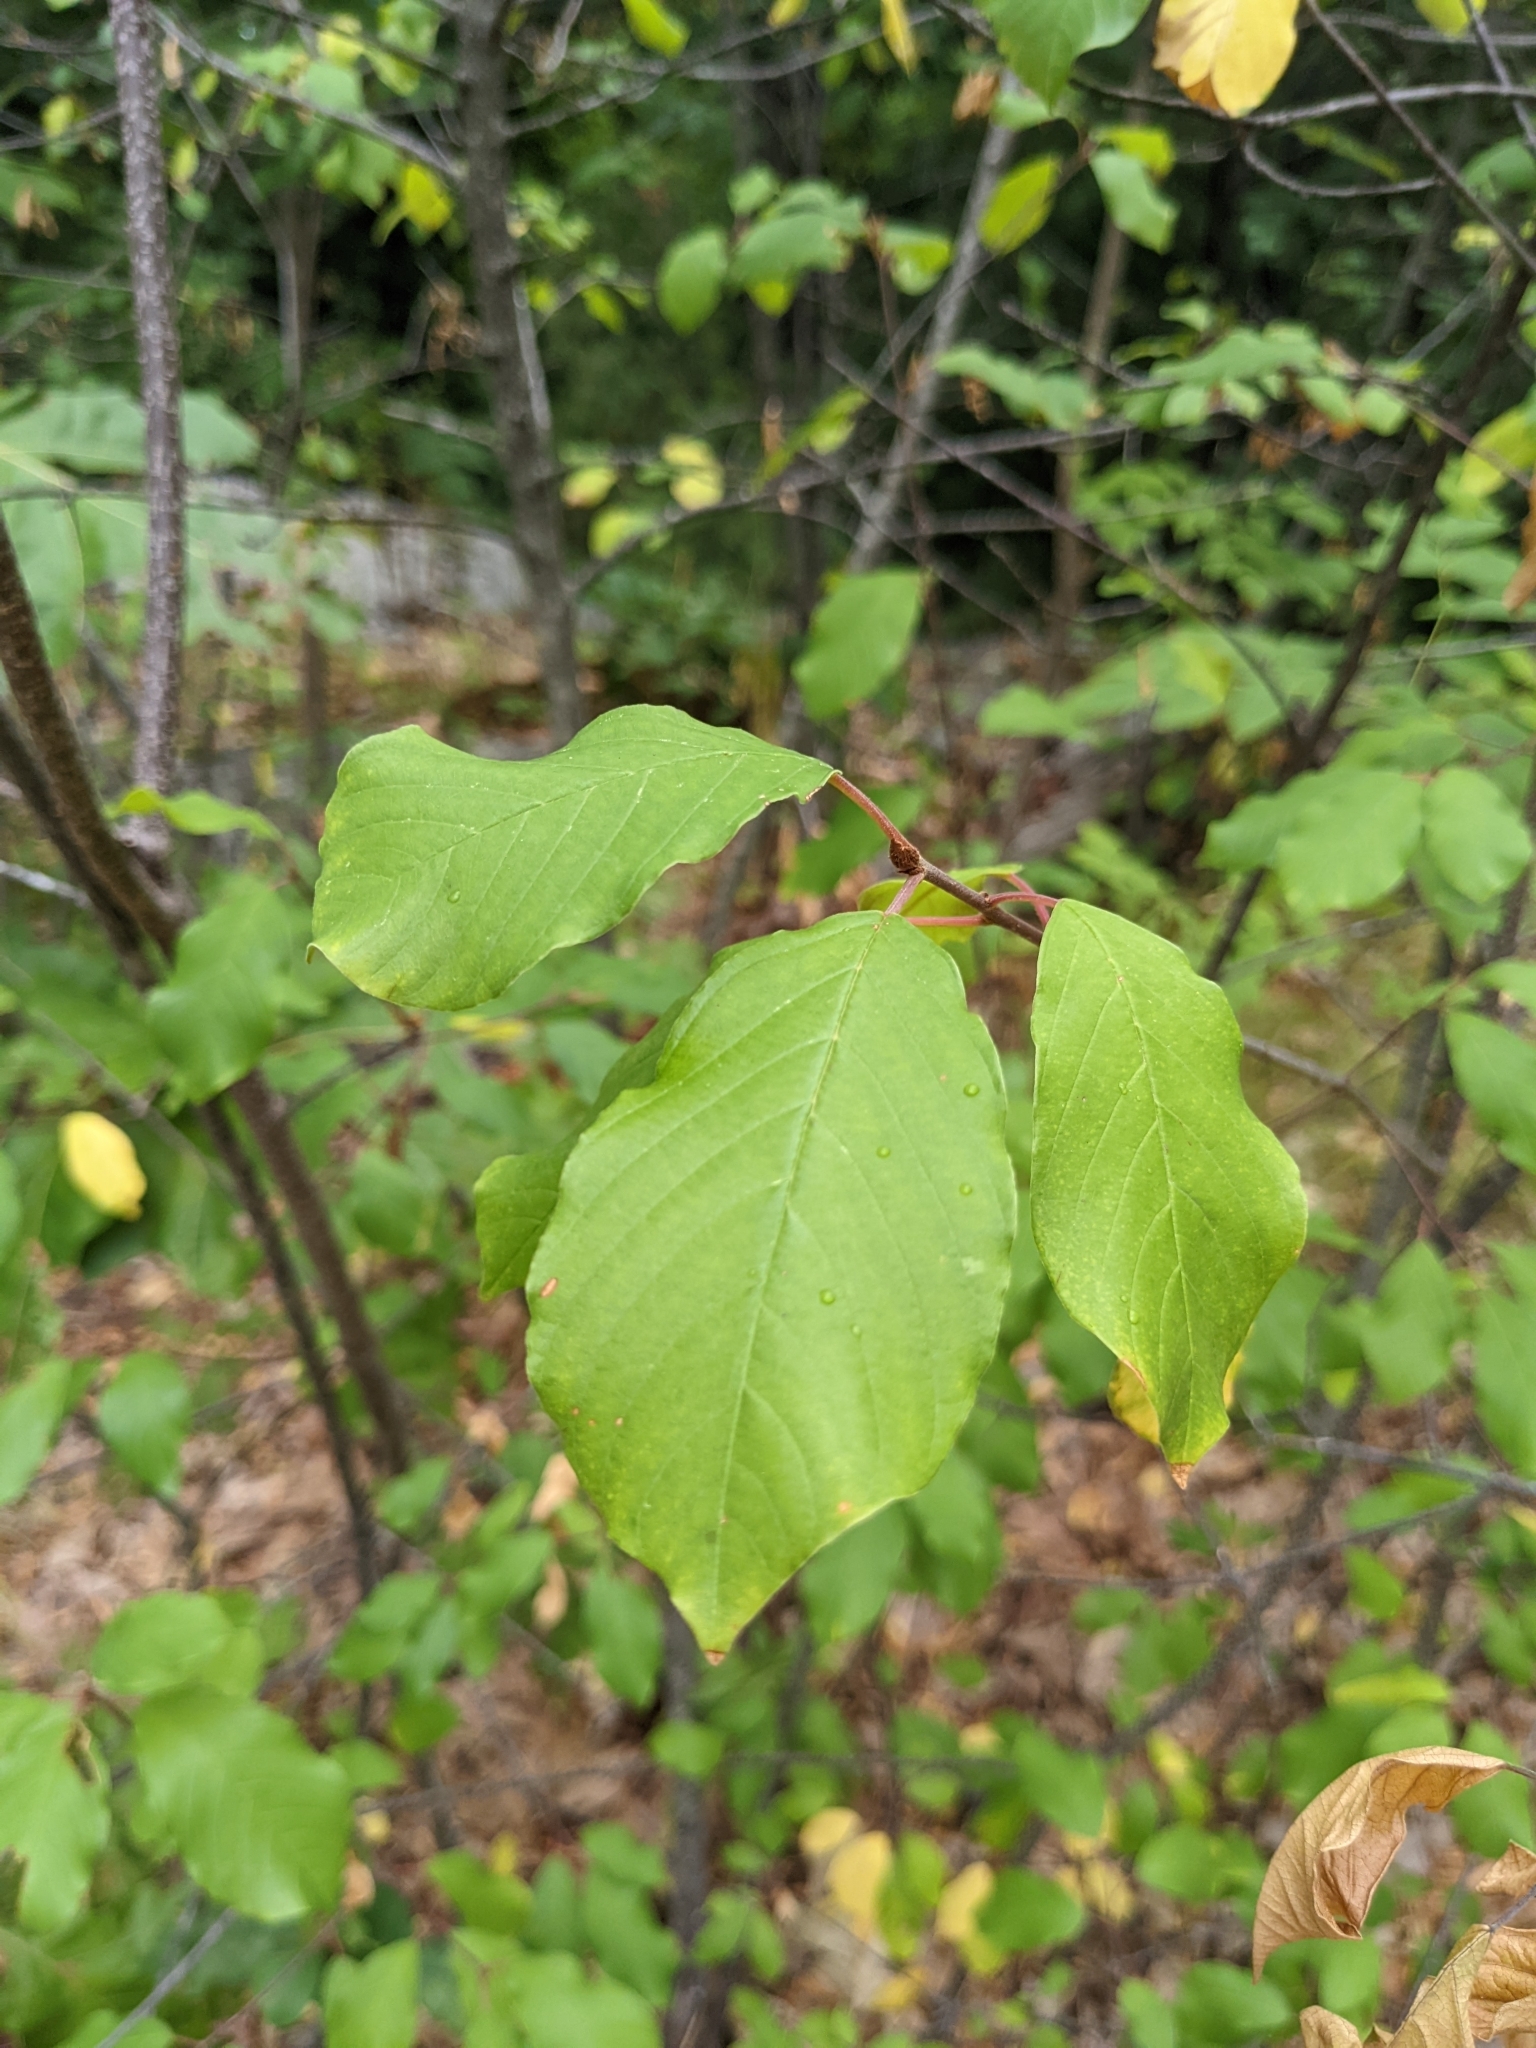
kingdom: Plantae
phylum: Tracheophyta
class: Magnoliopsida
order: Rosales
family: Rhamnaceae
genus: Frangula
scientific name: Frangula alnus
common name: Alder buckthorn
